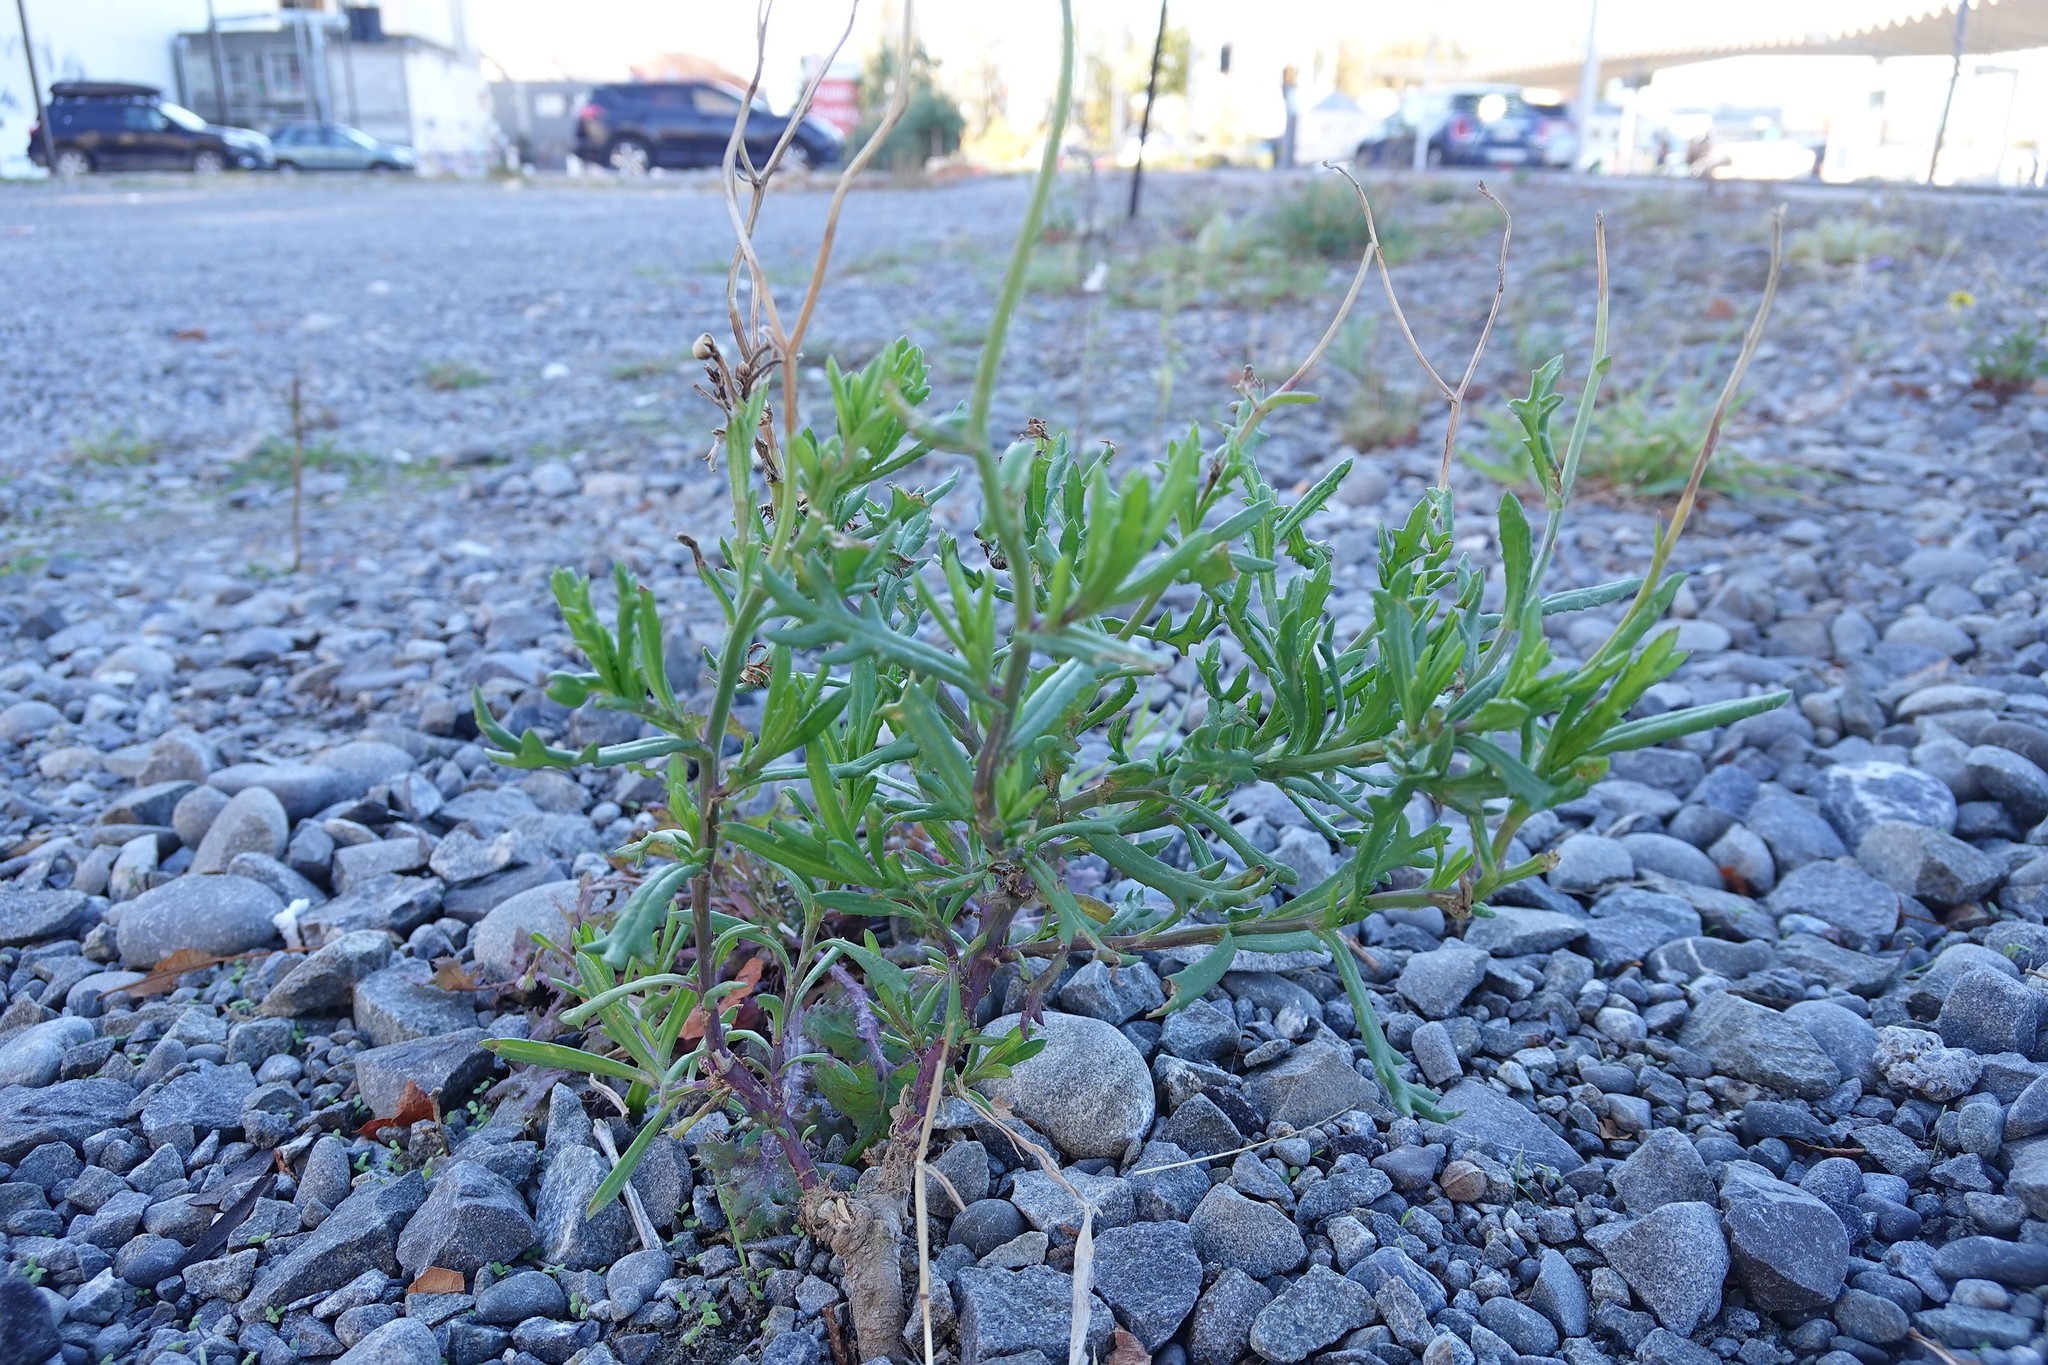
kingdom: Plantae
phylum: Tracheophyta
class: Magnoliopsida
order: Asterales
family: Asteraceae
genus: Senecio
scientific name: Senecio skirrhodon
